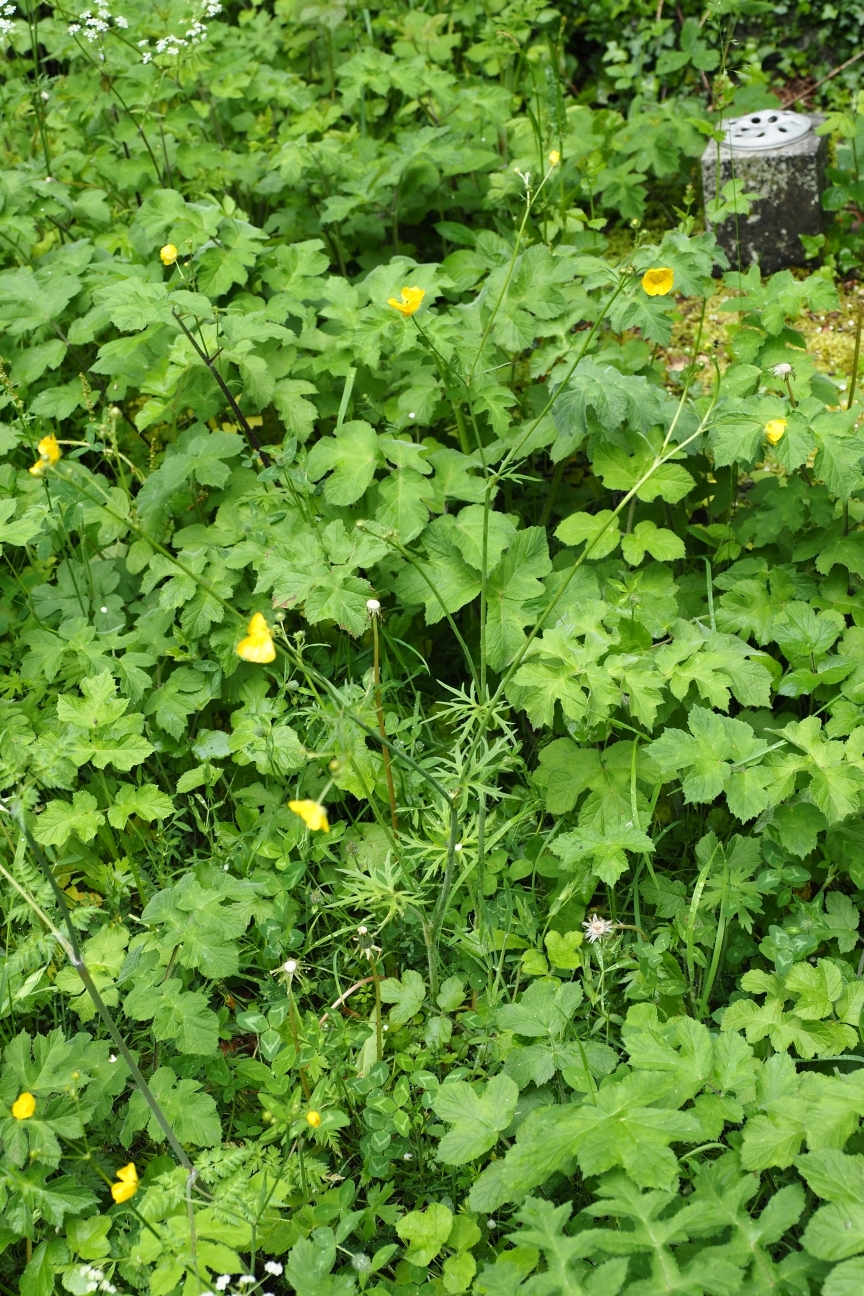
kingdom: Plantae
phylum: Tracheophyta
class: Magnoliopsida
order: Ranunculales
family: Ranunculaceae
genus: Ranunculus
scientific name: Ranunculus acris
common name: Meadow buttercup
